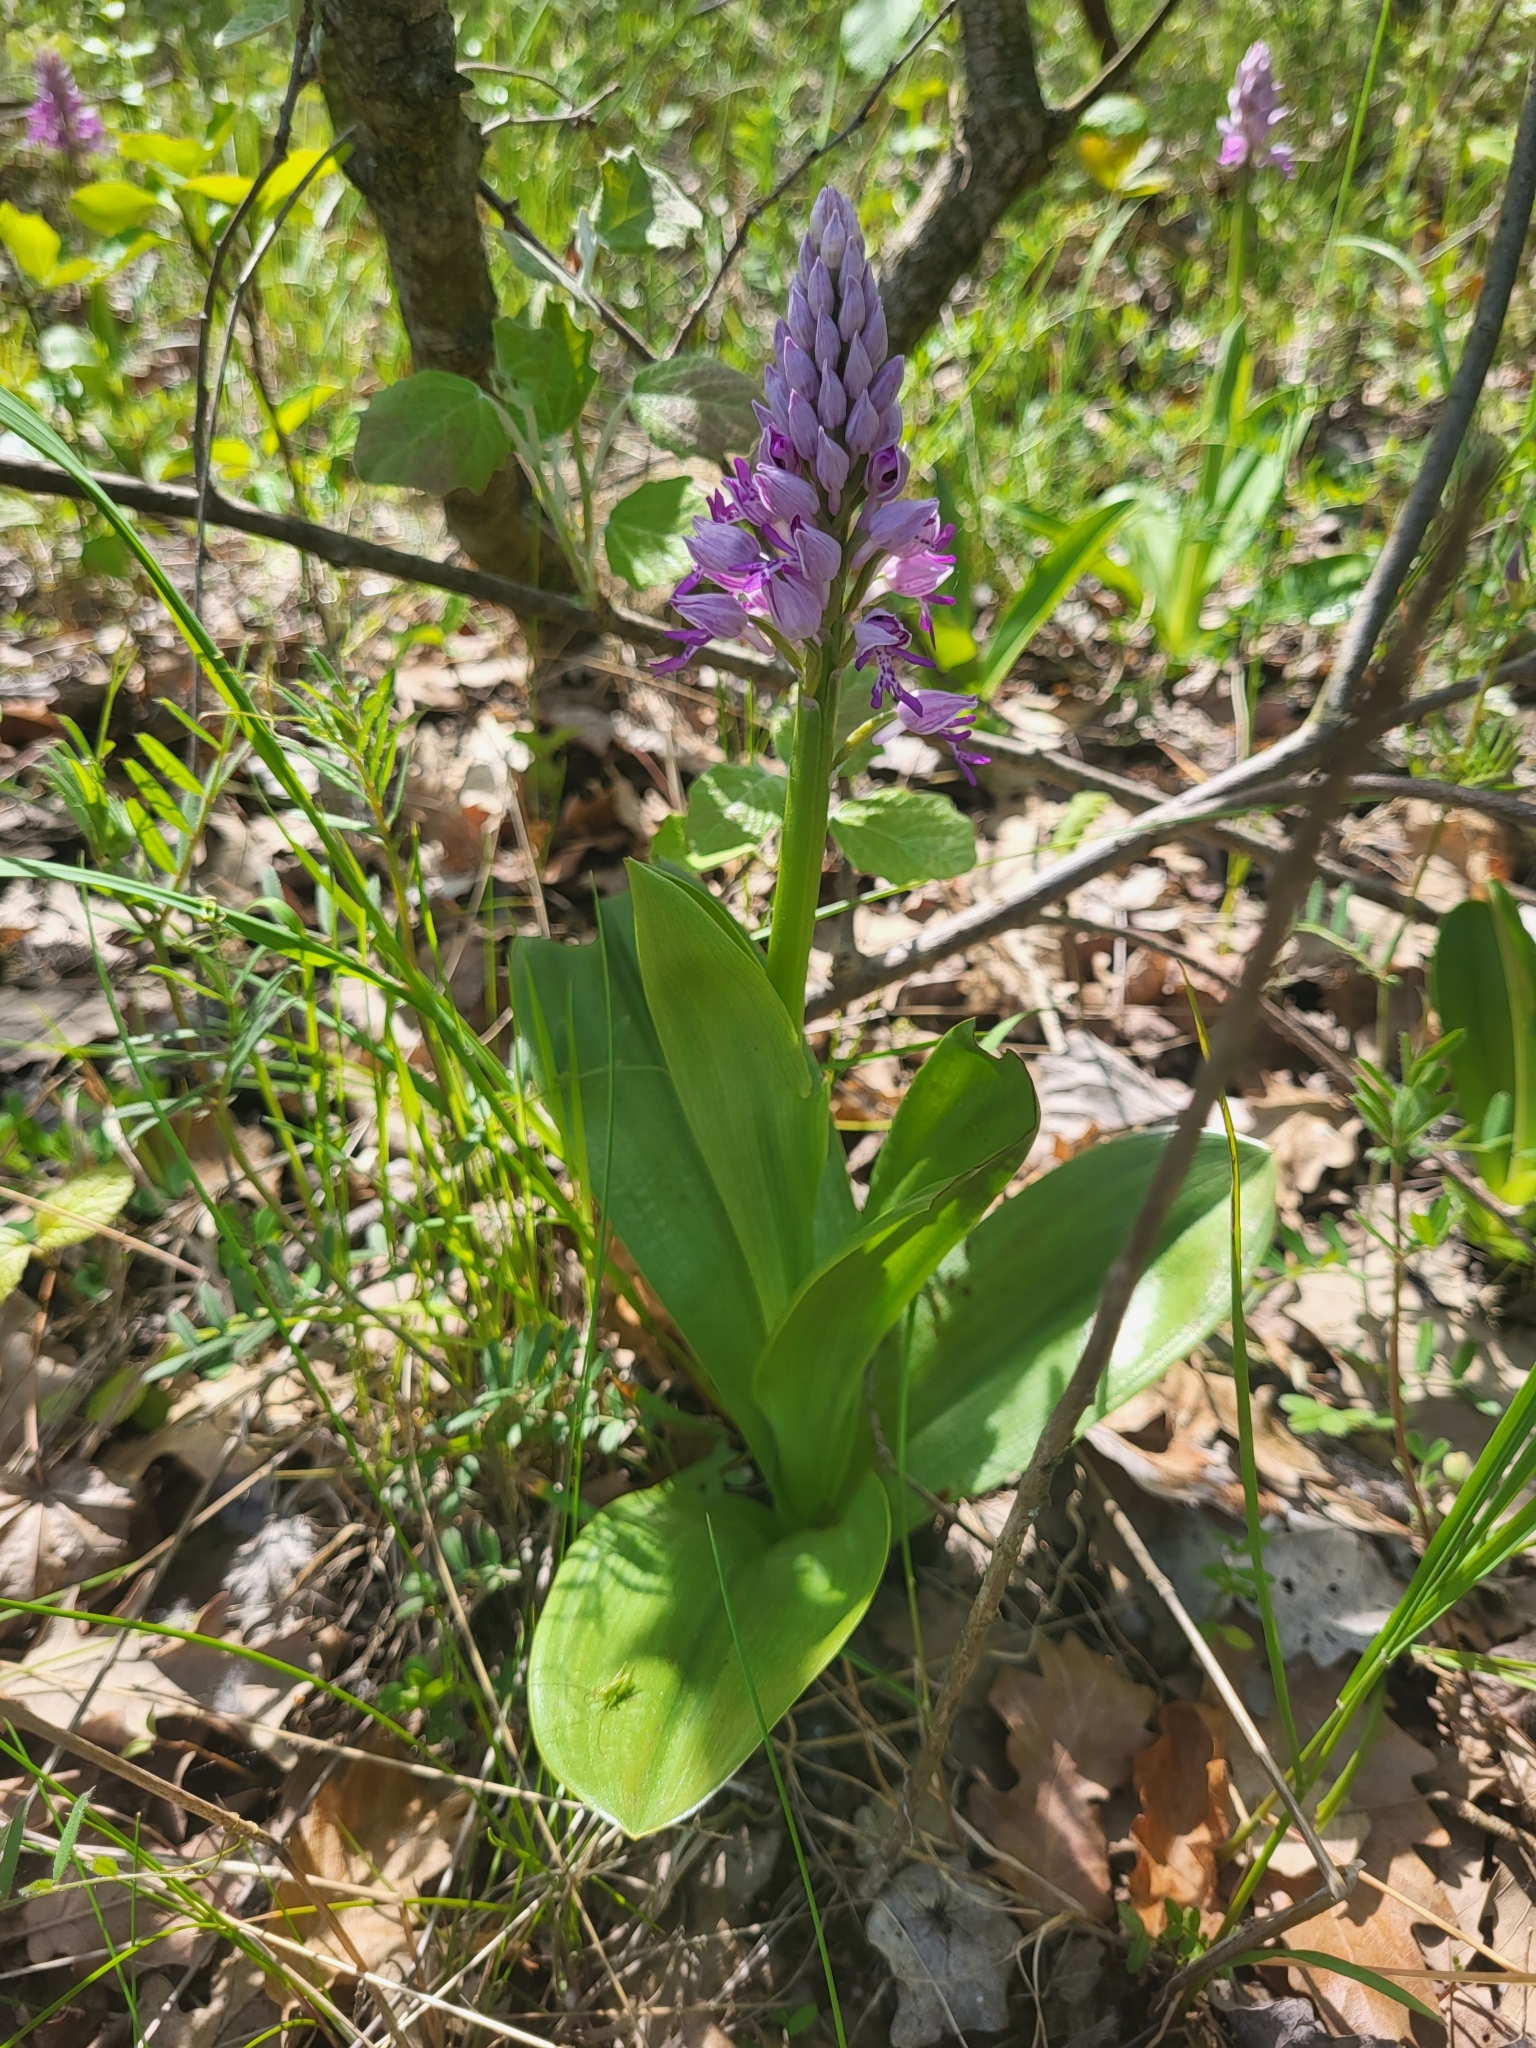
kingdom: Plantae
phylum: Tracheophyta
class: Liliopsida
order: Asparagales
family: Orchidaceae
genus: Orchis
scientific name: Orchis militaris
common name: Military orchid
